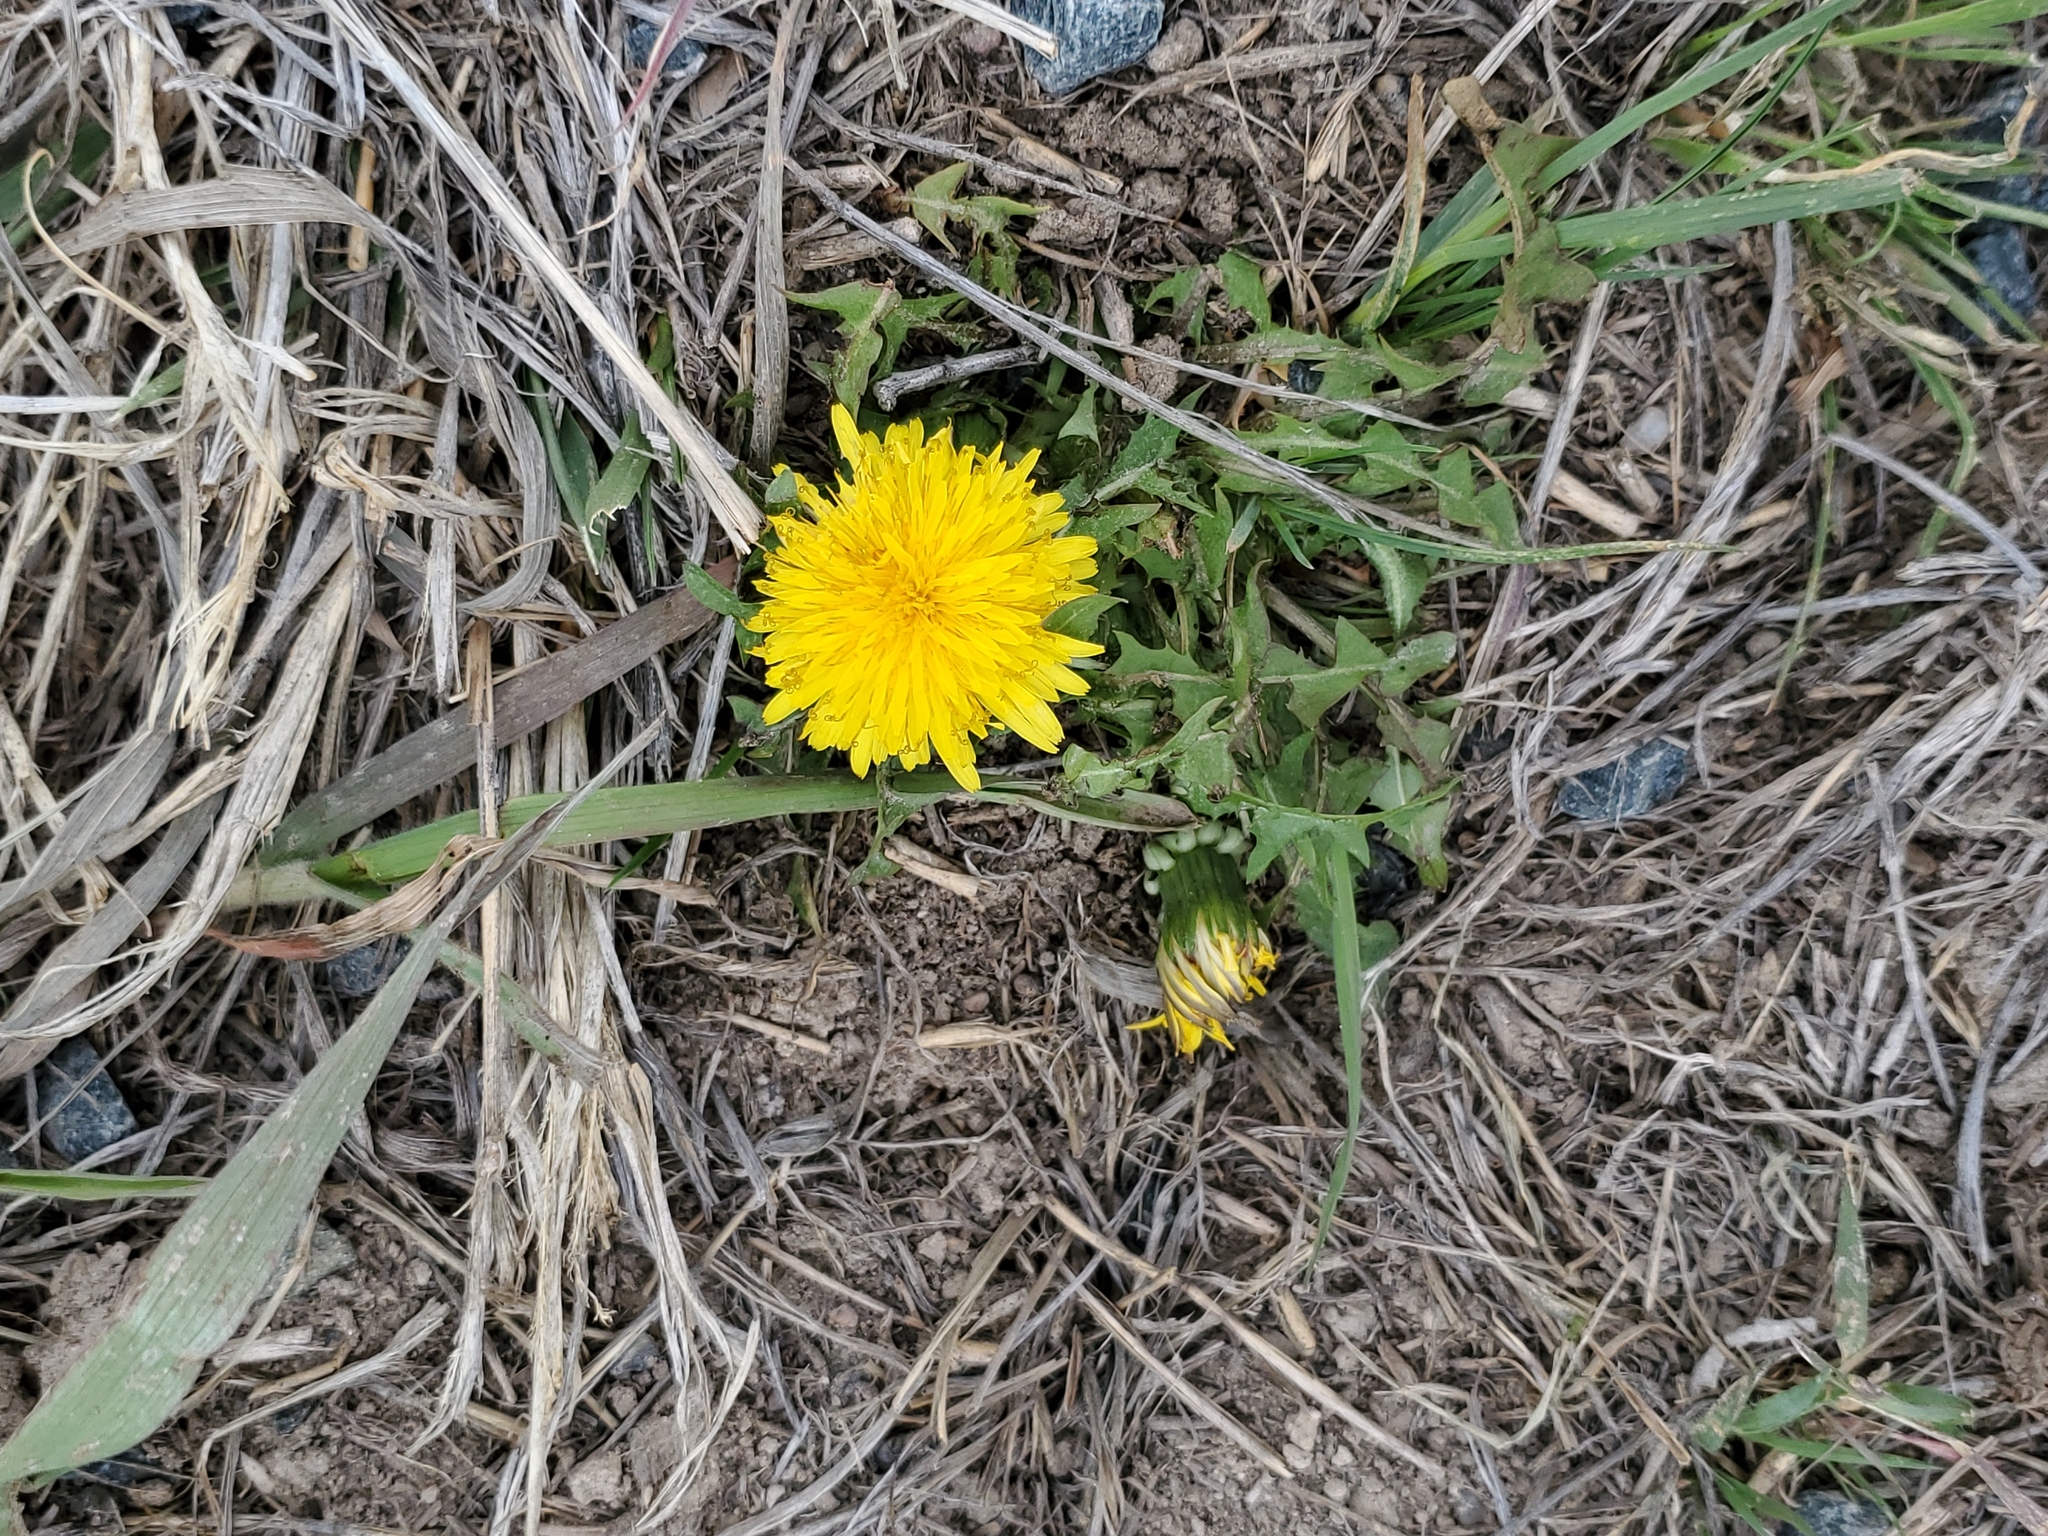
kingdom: Plantae
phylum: Tracheophyta
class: Magnoliopsida
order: Asterales
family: Asteraceae
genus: Taraxacum
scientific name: Taraxacum
